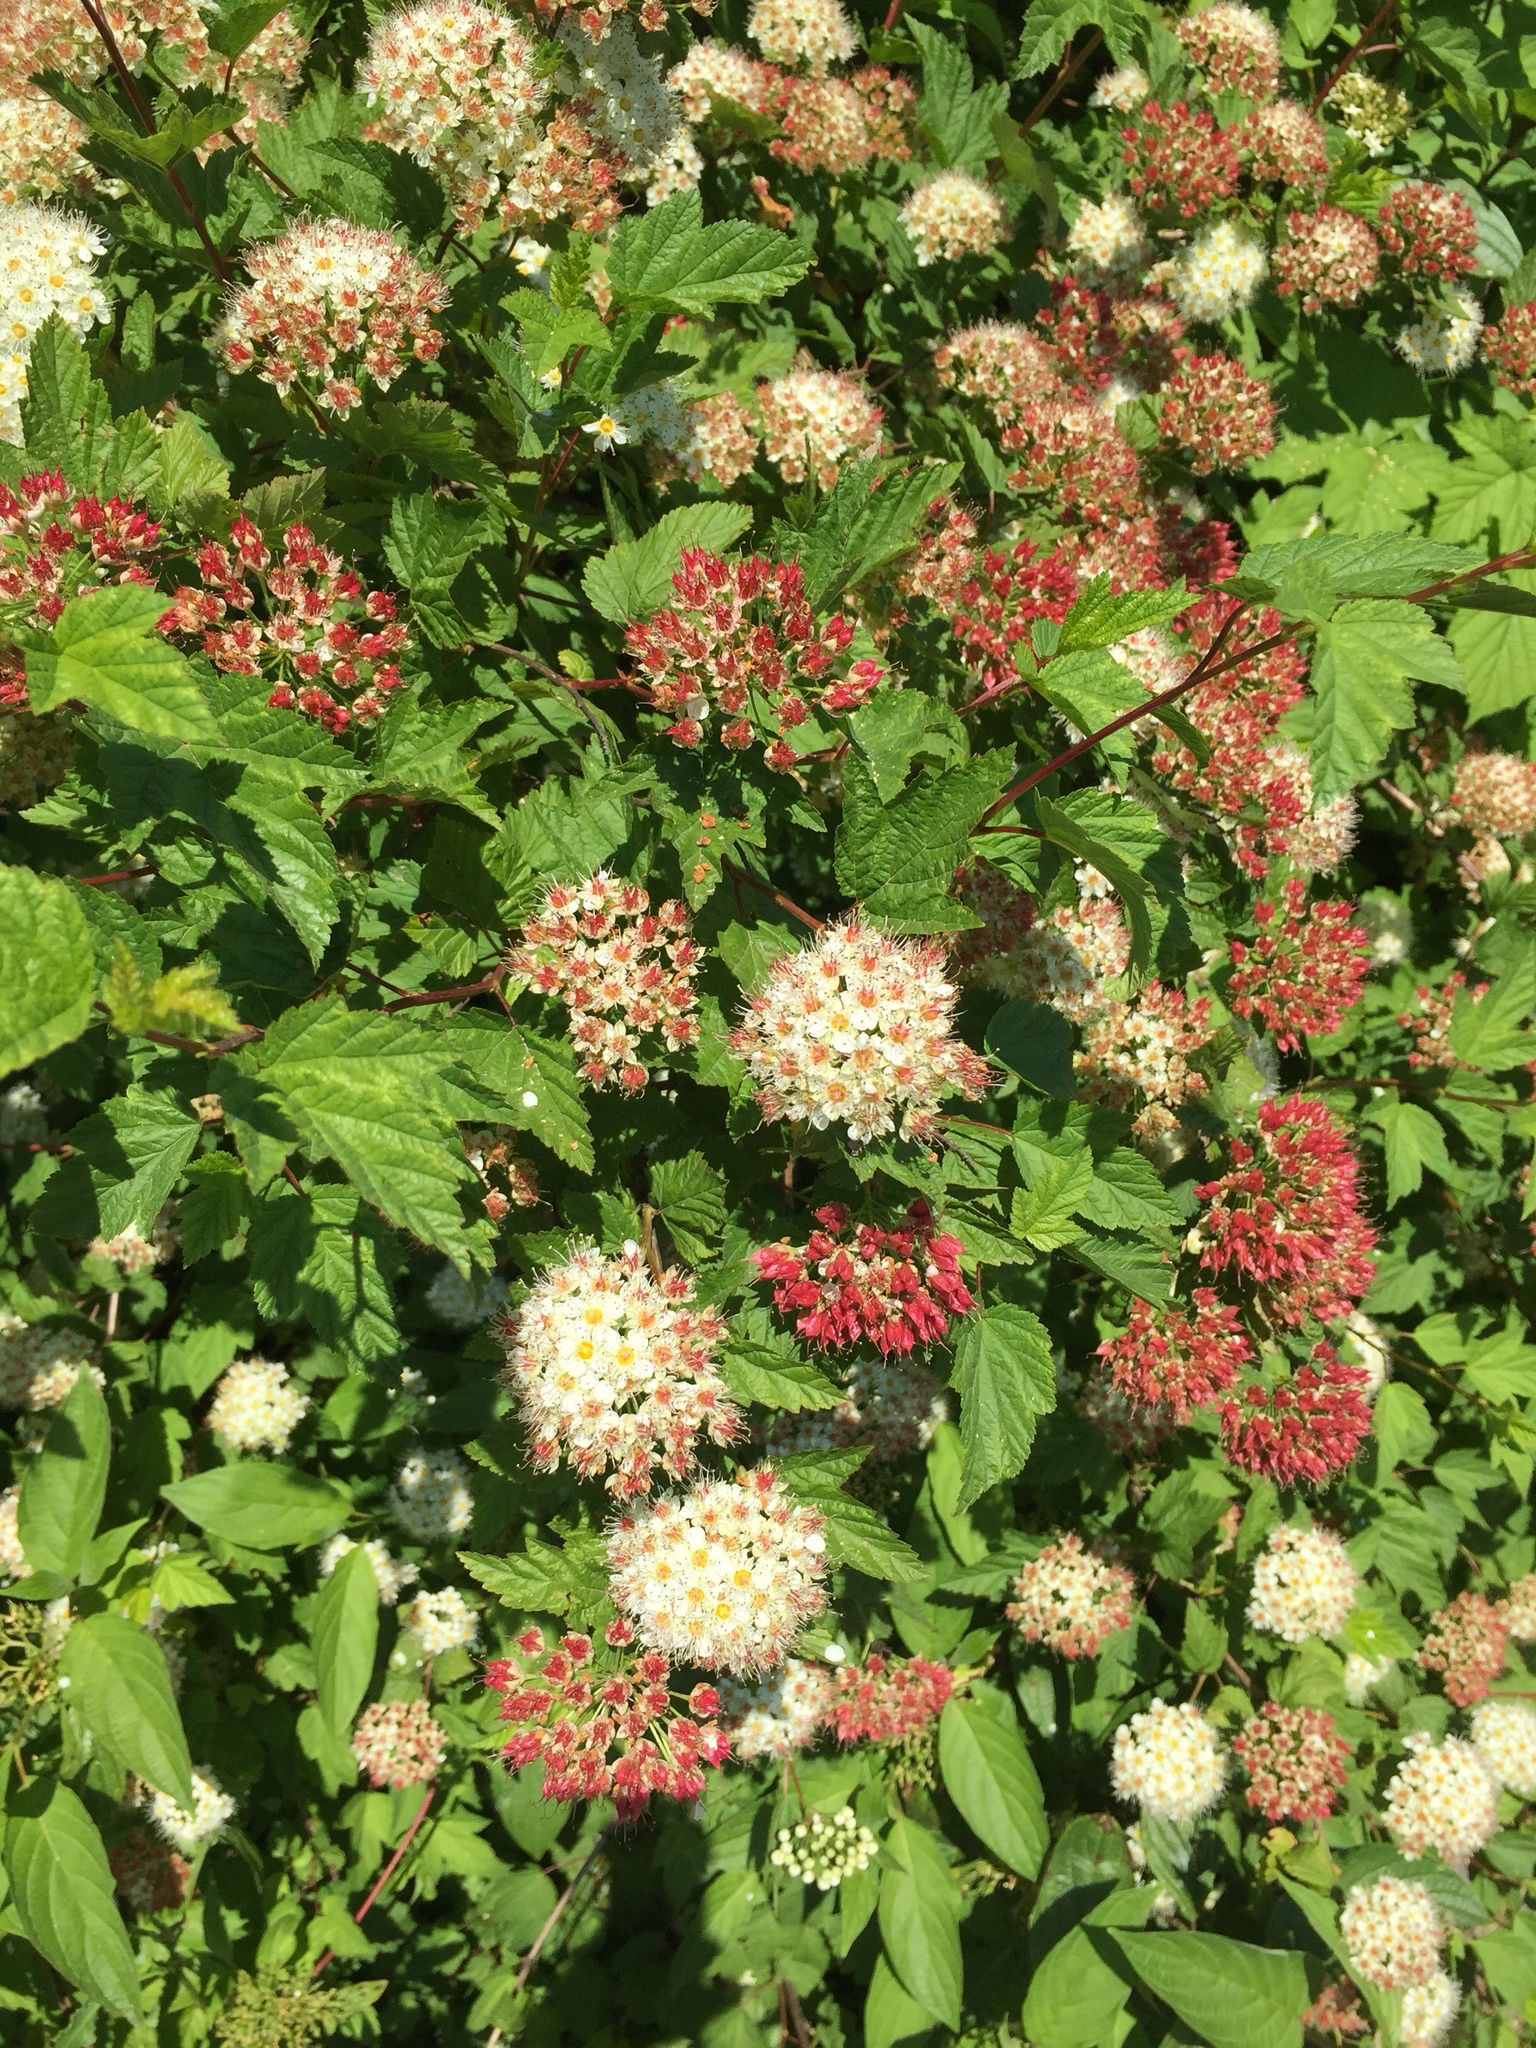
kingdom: Plantae
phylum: Tracheophyta
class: Magnoliopsida
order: Rosales
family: Rosaceae
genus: Physocarpus
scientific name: Physocarpus capitatus
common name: Pacific ninebark
